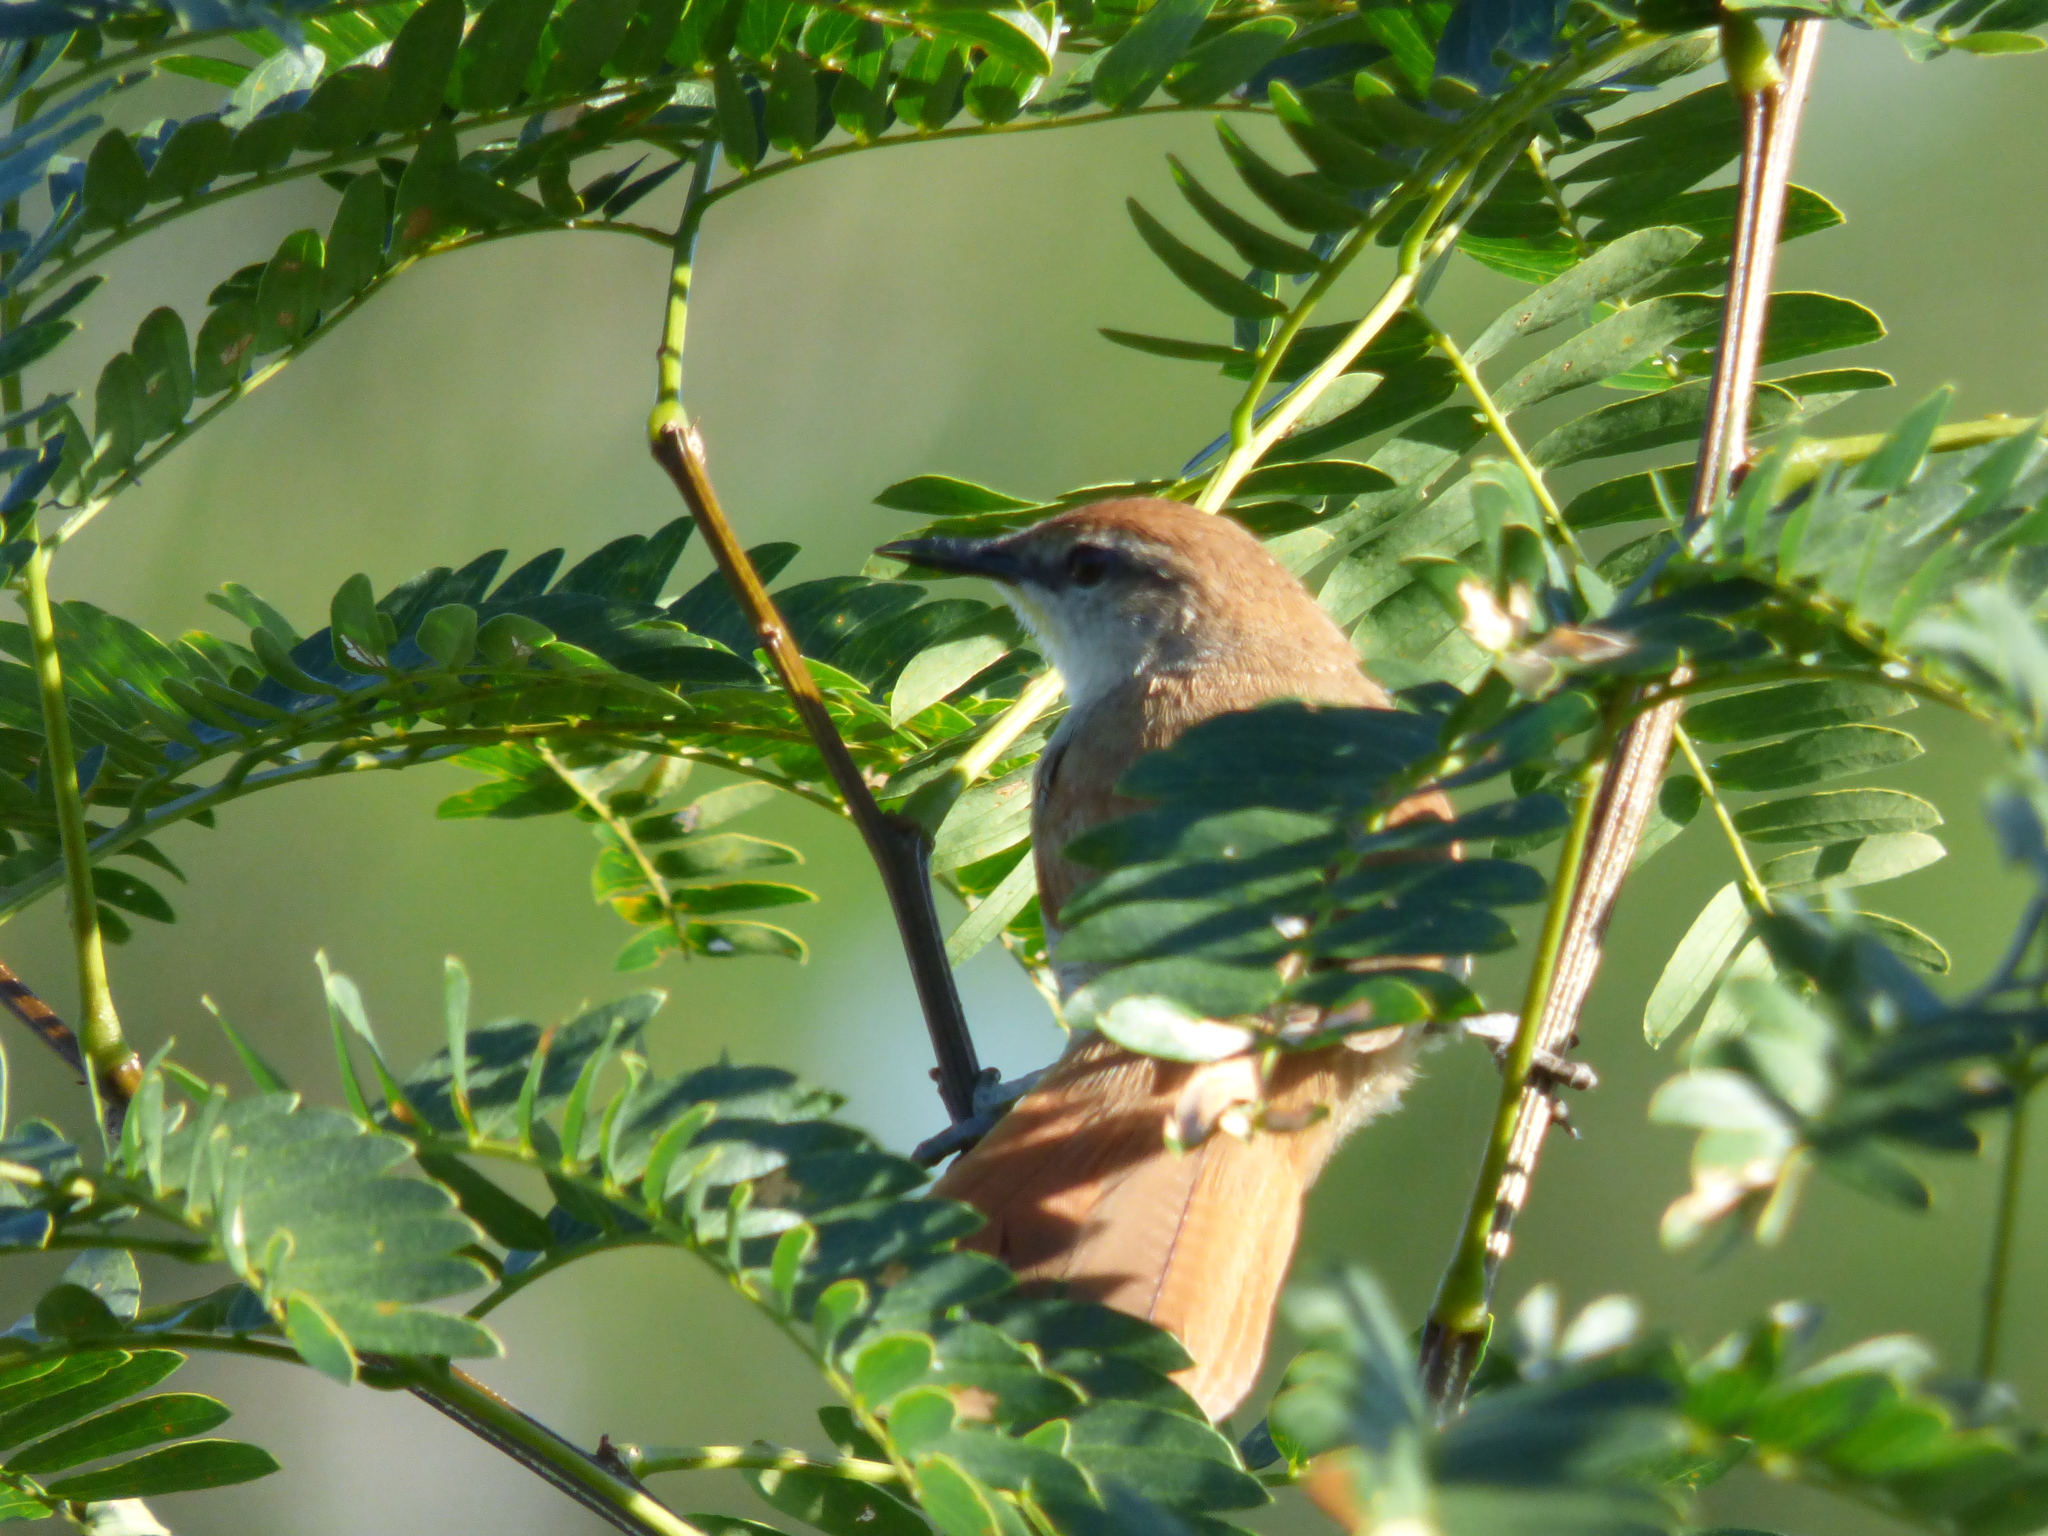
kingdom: Animalia
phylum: Chordata
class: Aves
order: Passeriformes
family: Furnariidae
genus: Certhiaxis
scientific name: Certhiaxis cinnamomeus
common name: Yellow-chinned spinetail
